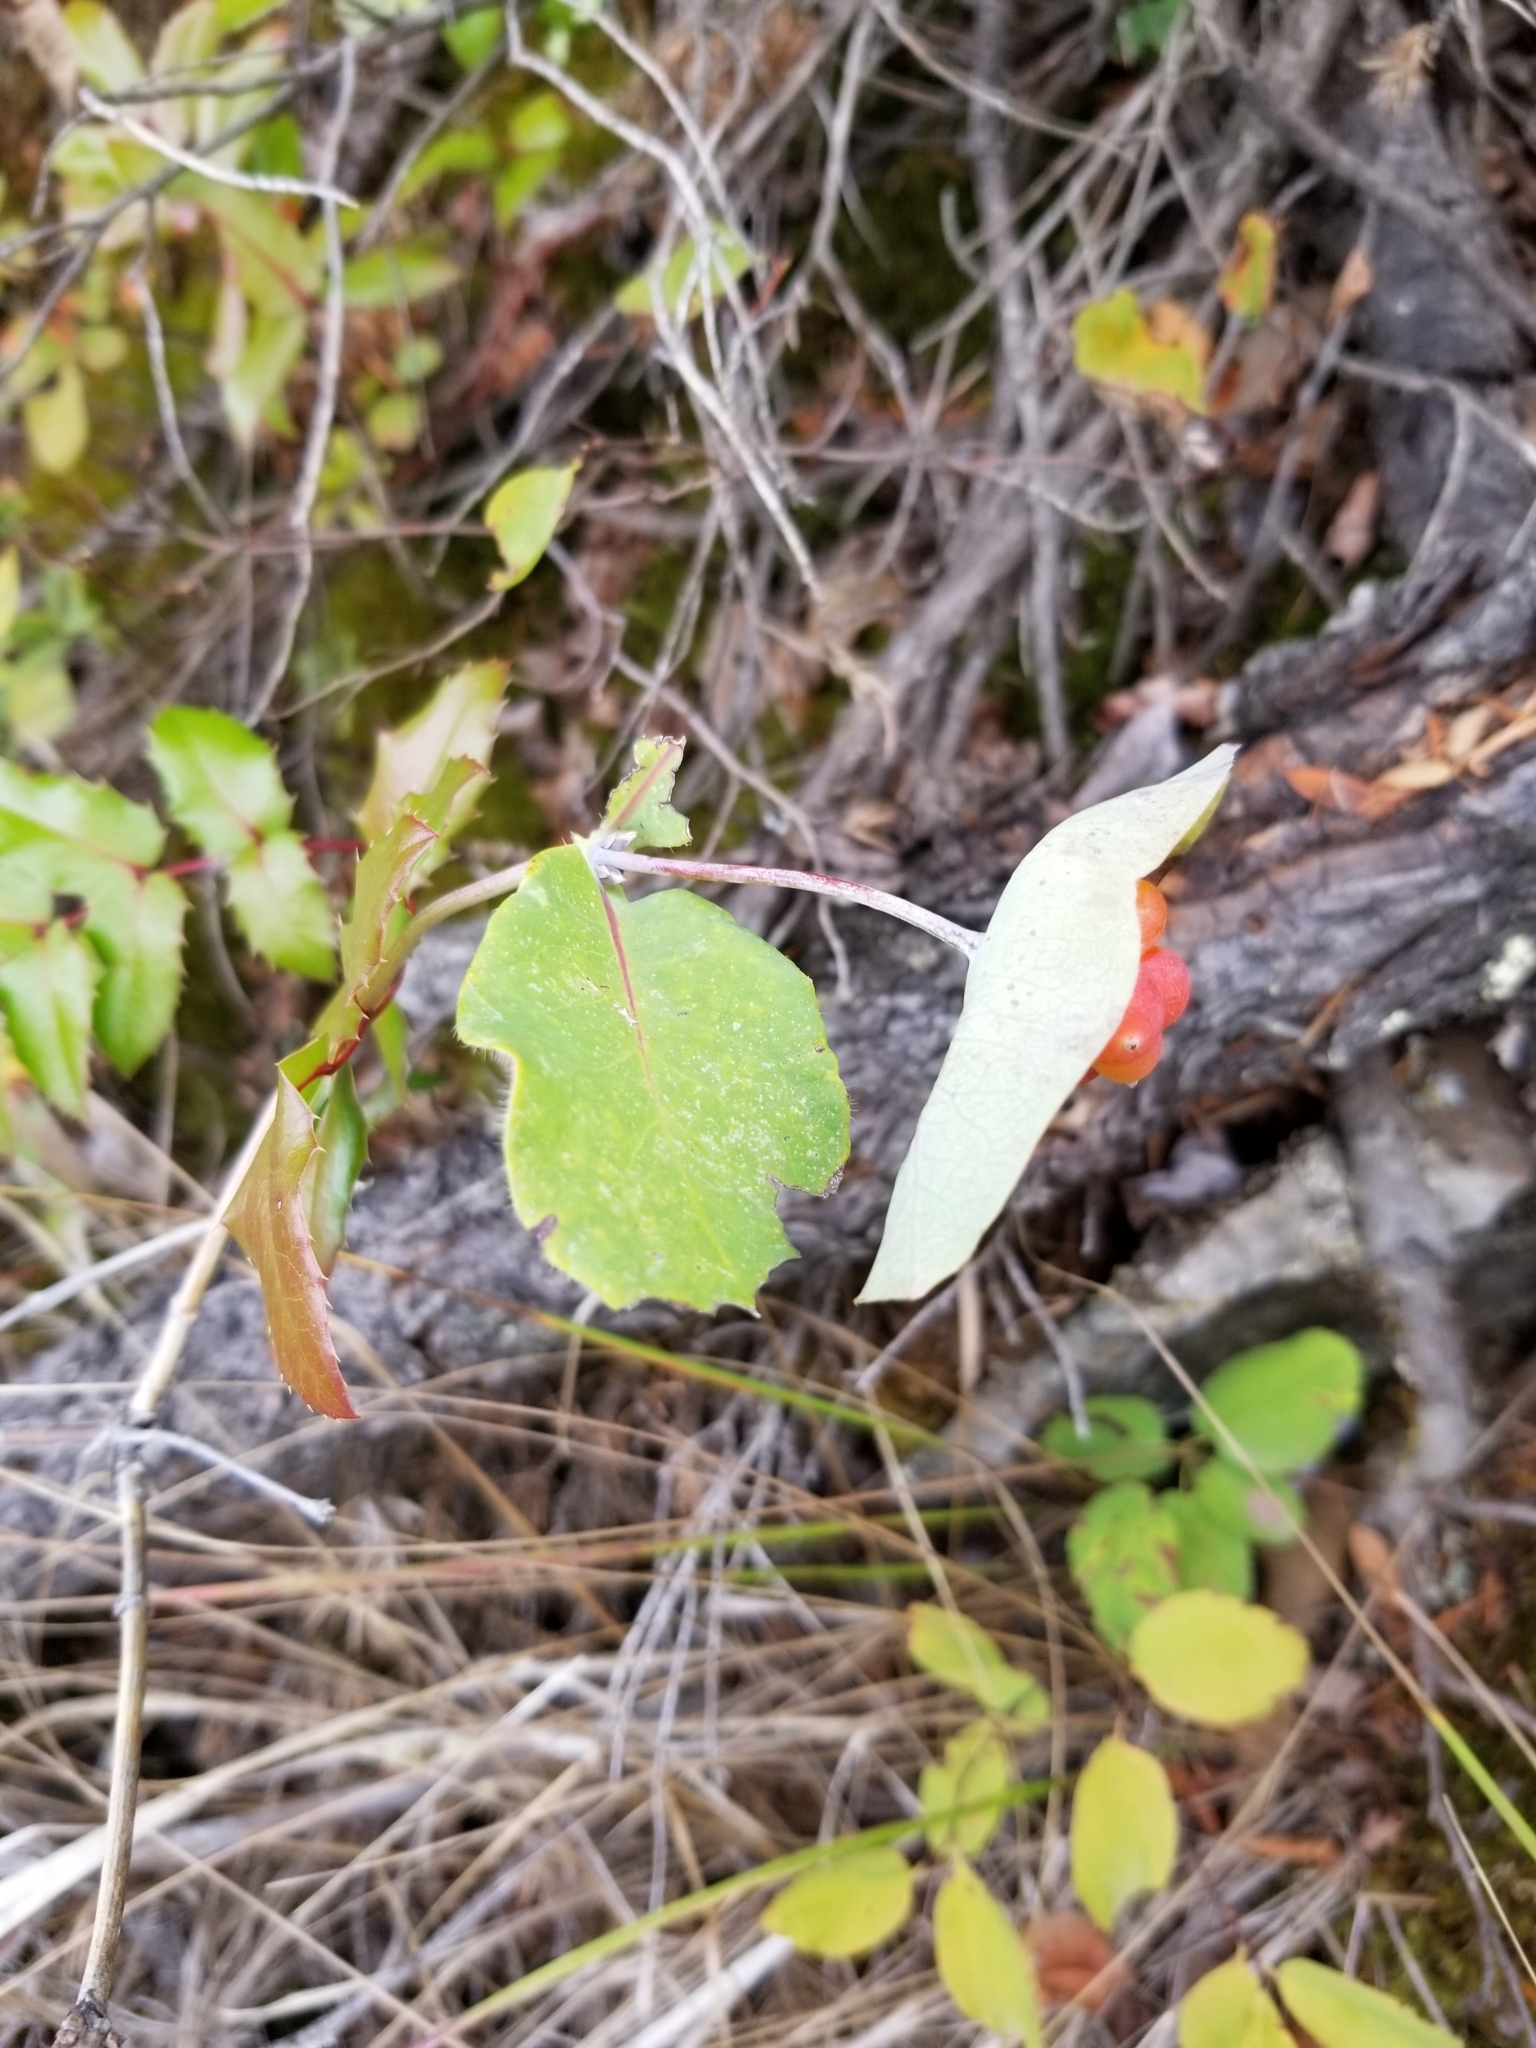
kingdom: Plantae
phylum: Tracheophyta
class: Magnoliopsida
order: Dipsacales
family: Caprifoliaceae
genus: Lonicera
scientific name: Lonicera ciliosa
